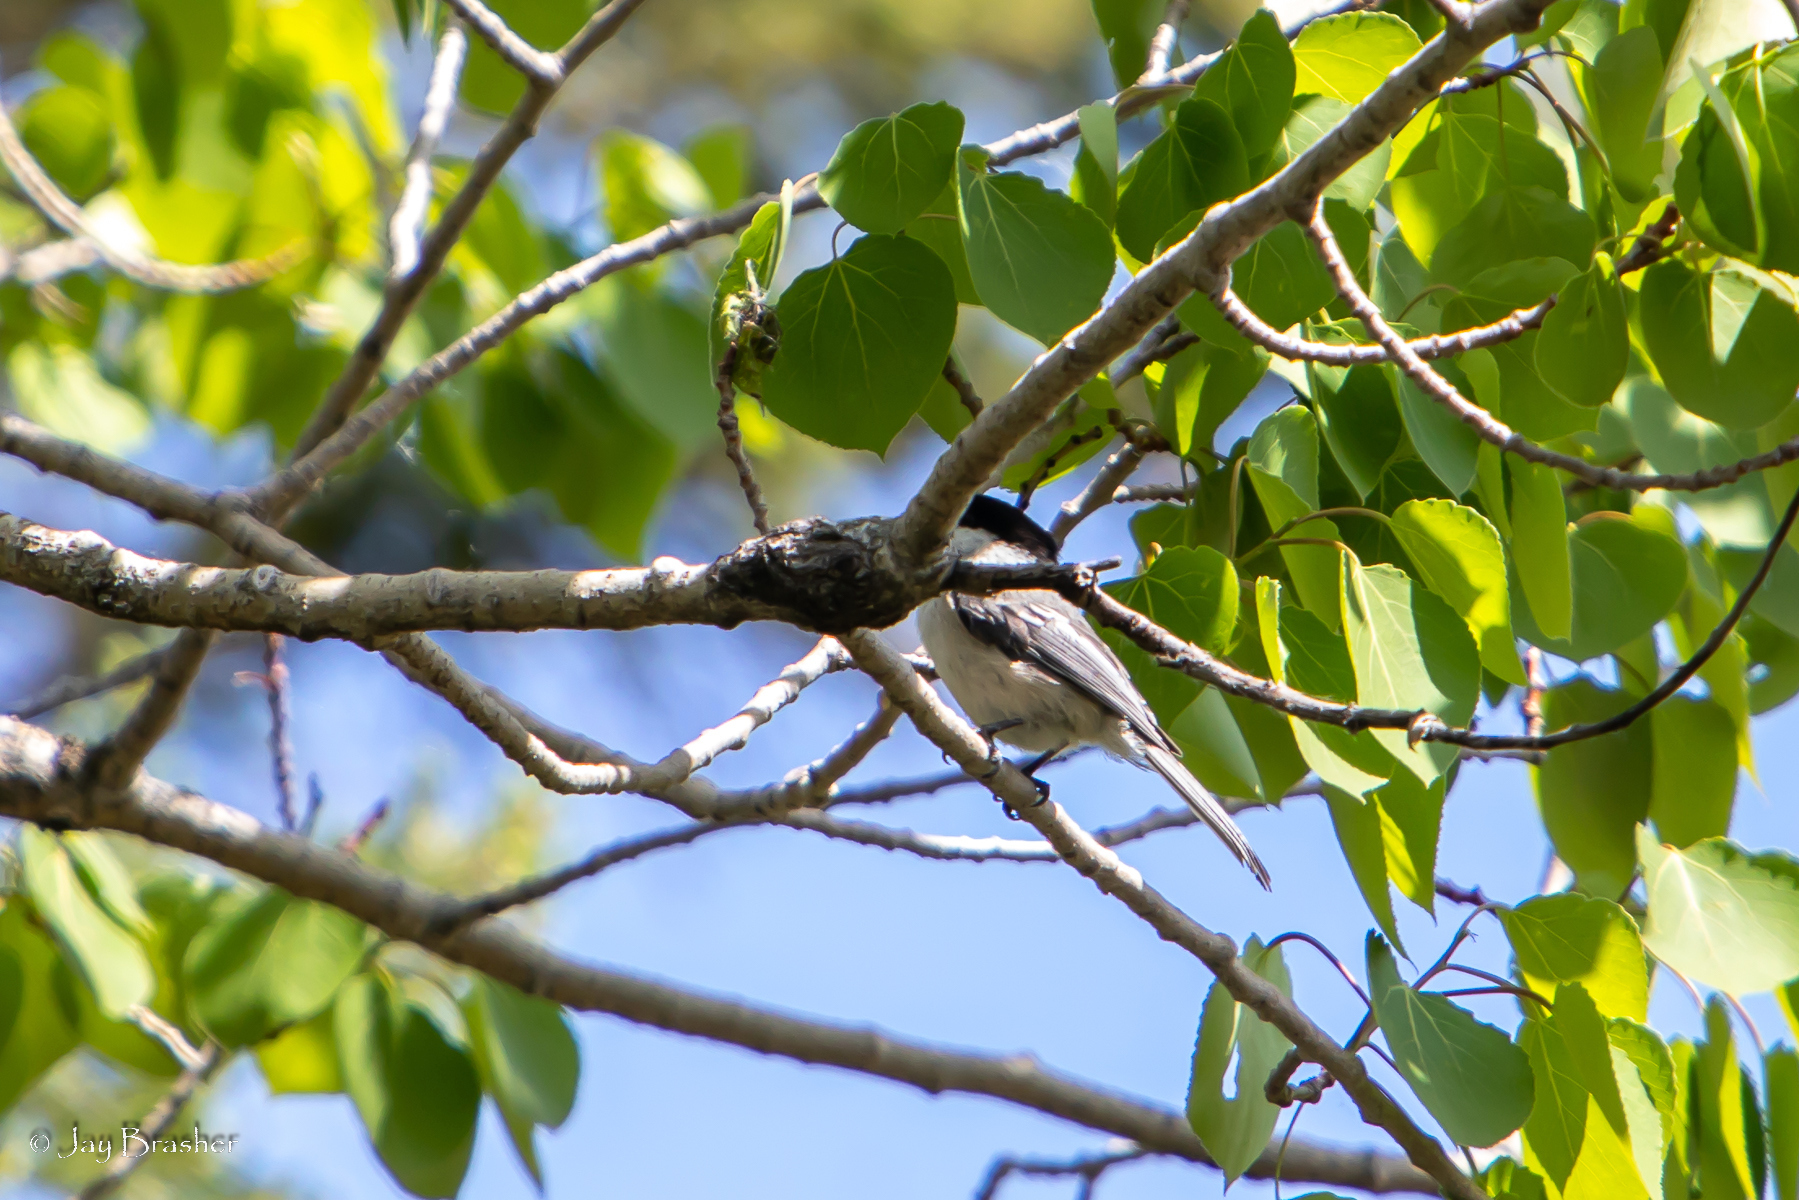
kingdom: Animalia
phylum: Chordata
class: Aves
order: Passeriformes
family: Paridae
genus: Poecile
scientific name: Poecile atricapillus
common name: Black-capped chickadee
